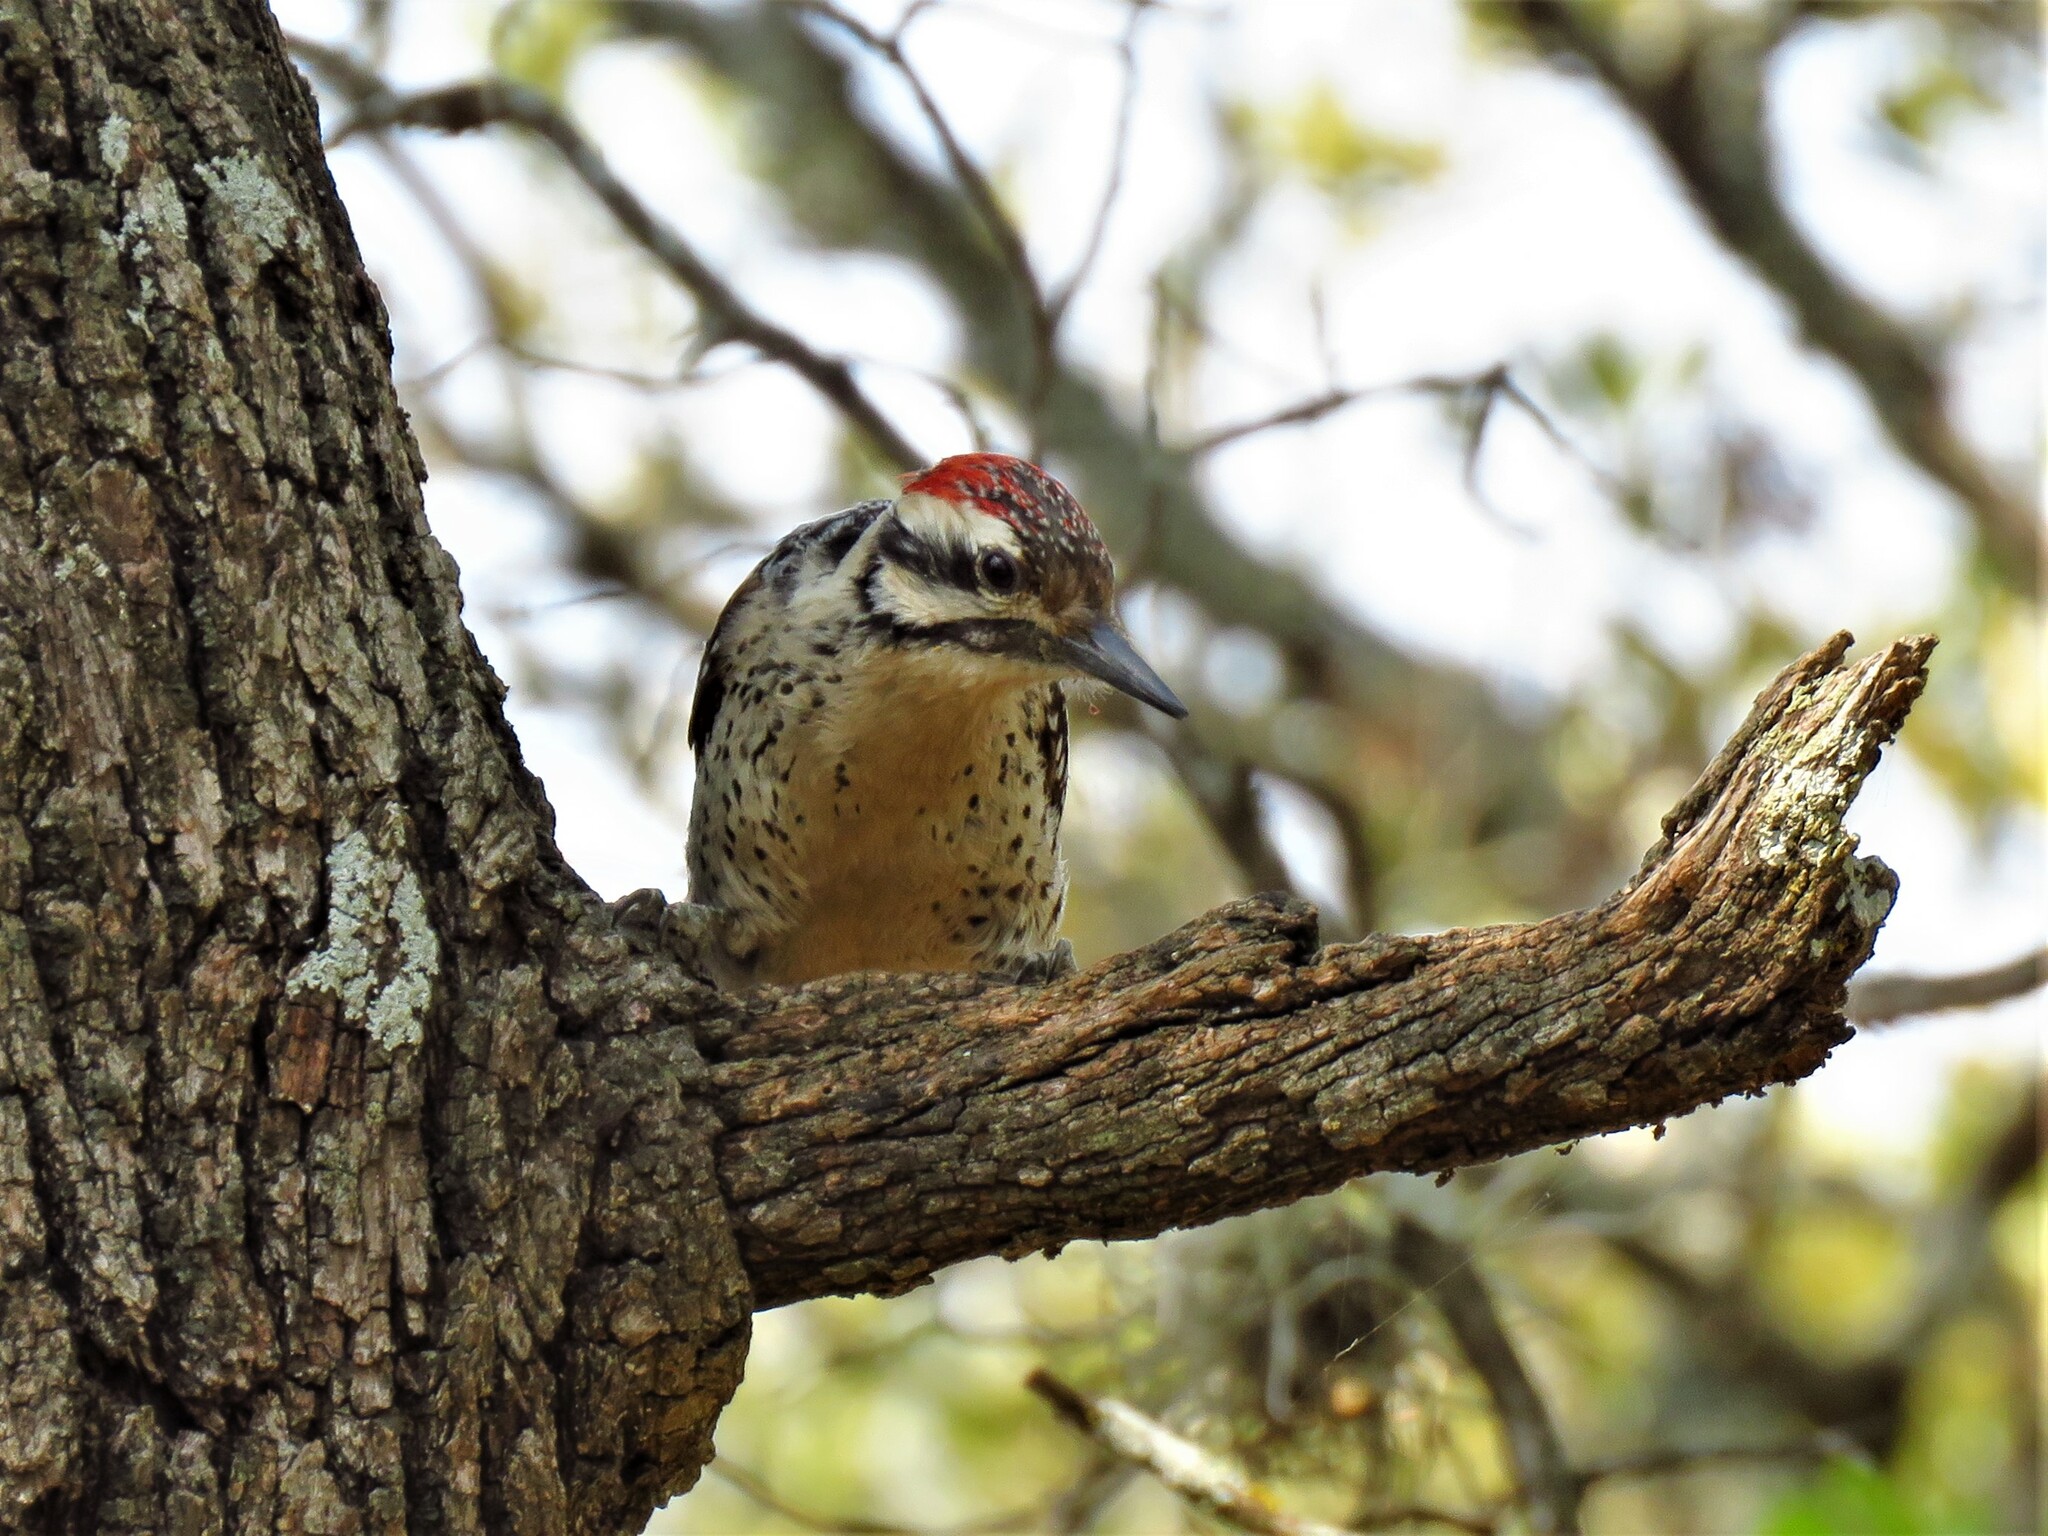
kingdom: Animalia
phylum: Chordata
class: Aves
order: Piciformes
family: Picidae
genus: Dryobates
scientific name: Dryobates scalaris
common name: Ladder-backed woodpecker
